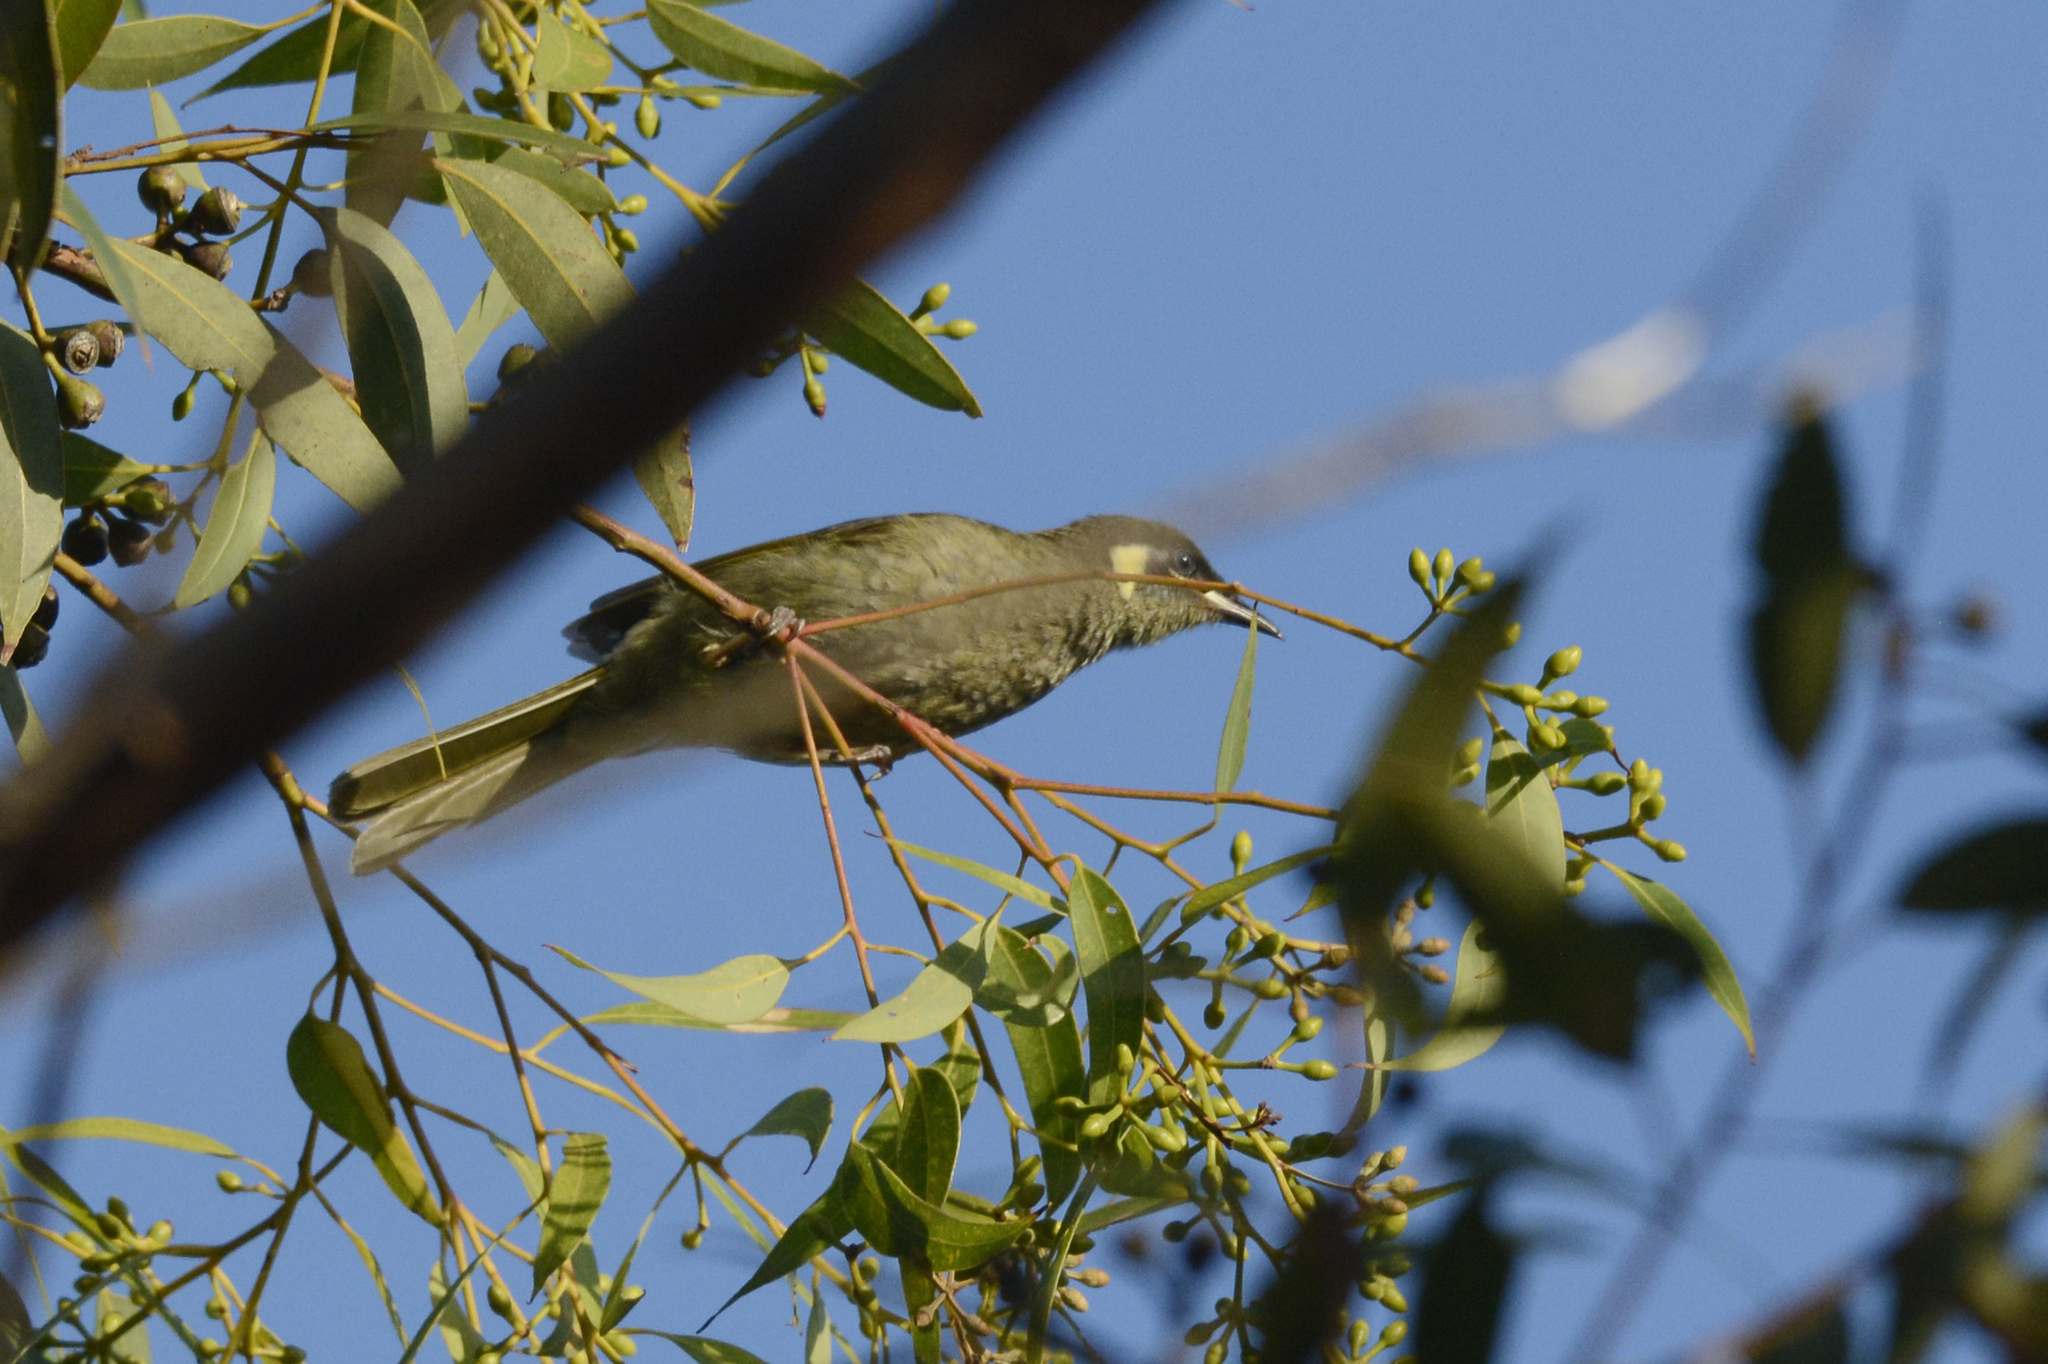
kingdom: Animalia
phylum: Chordata
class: Aves
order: Passeriformes
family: Meliphagidae
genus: Meliphaga
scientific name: Meliphaga lewinii
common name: Lewin's honeyeater
